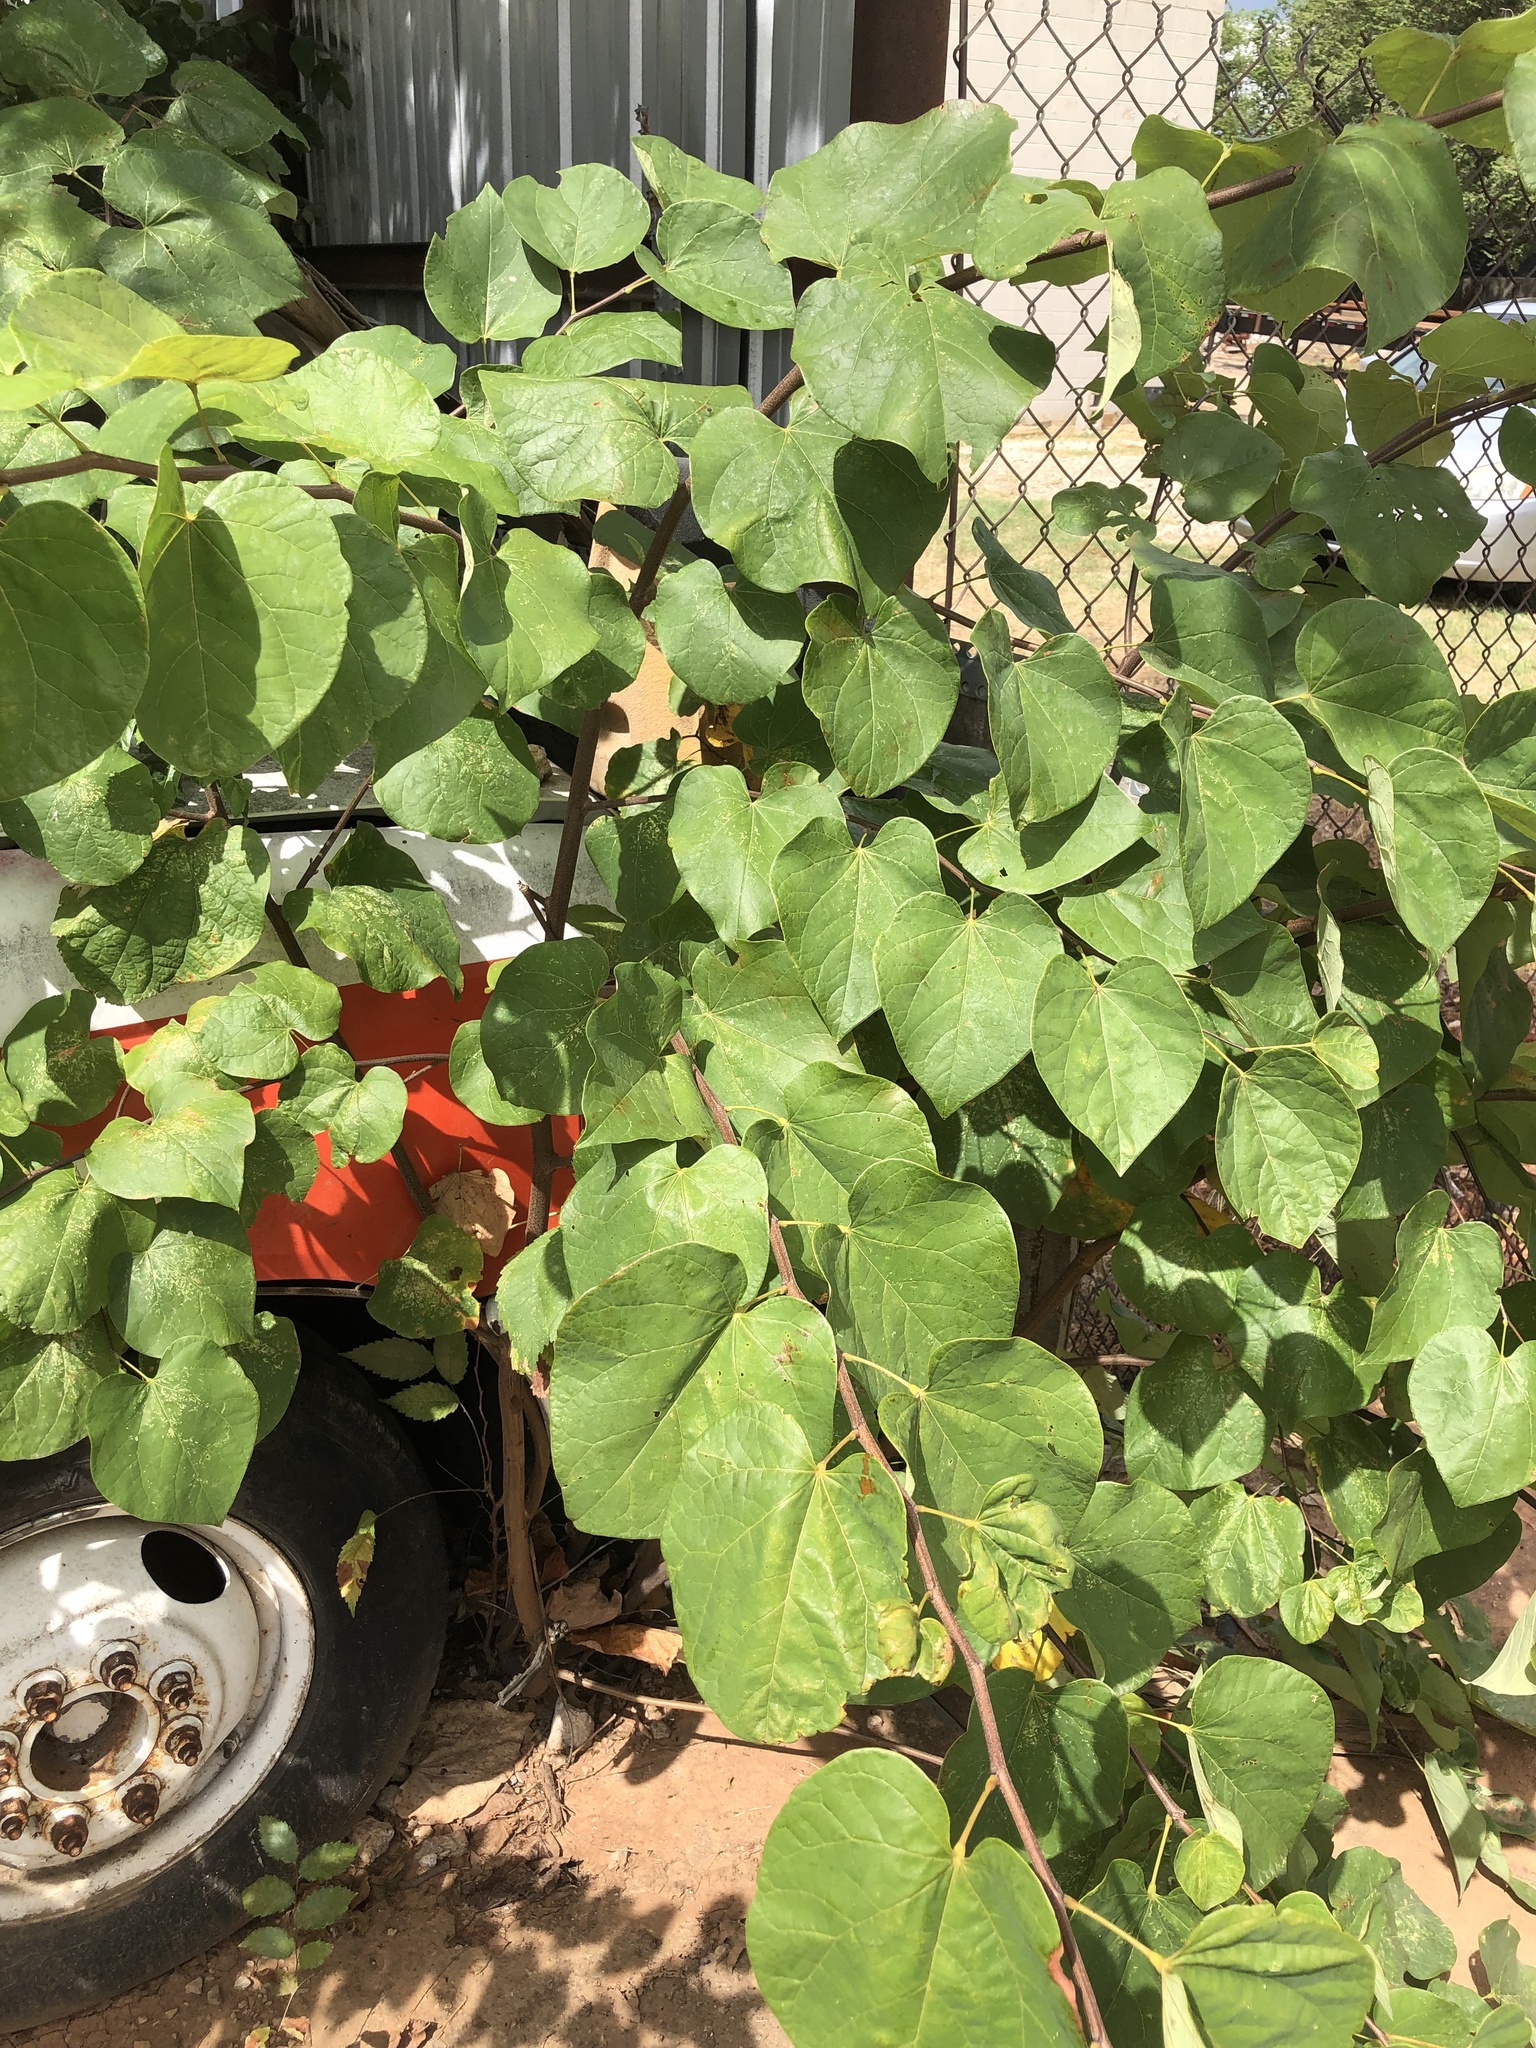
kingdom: Plantae
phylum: Tracheophyta
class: Magnoliopsida
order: Fabales
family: Fabaceae
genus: Cercis
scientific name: Cercis canadensis
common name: Eastern redbud
